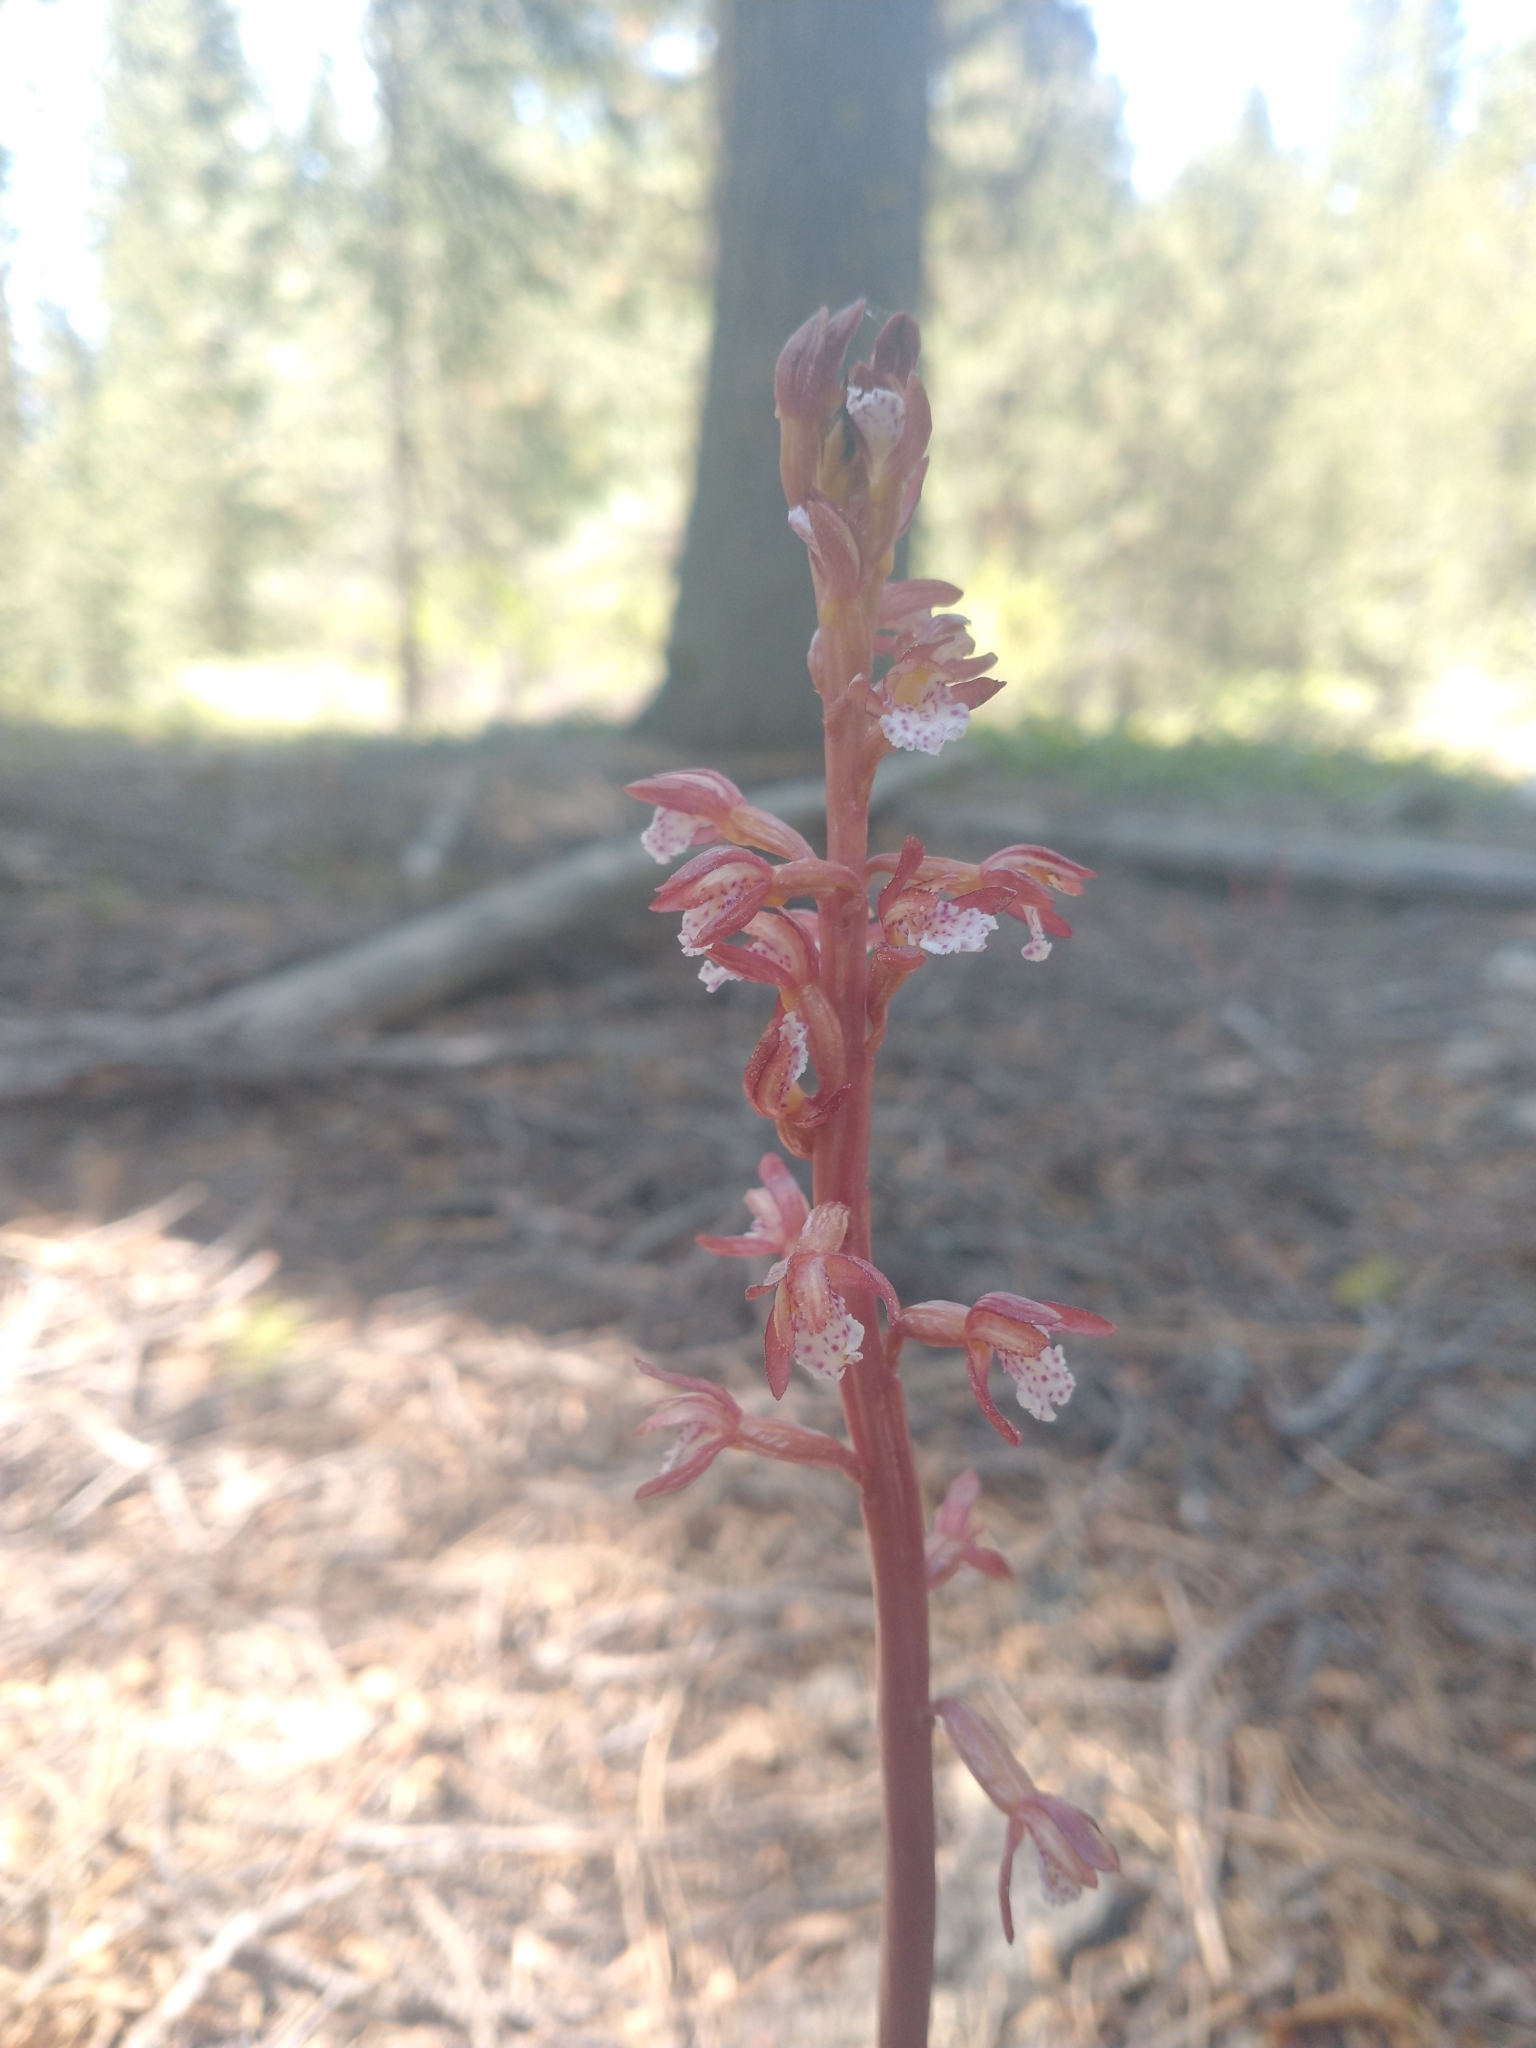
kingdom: Plantae
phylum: Tracheophyta
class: Liliopsida
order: Asparagales
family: Orchidaceae
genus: Corallorhiza
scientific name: Corallorhiza maculata
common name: Spotted coralroot
